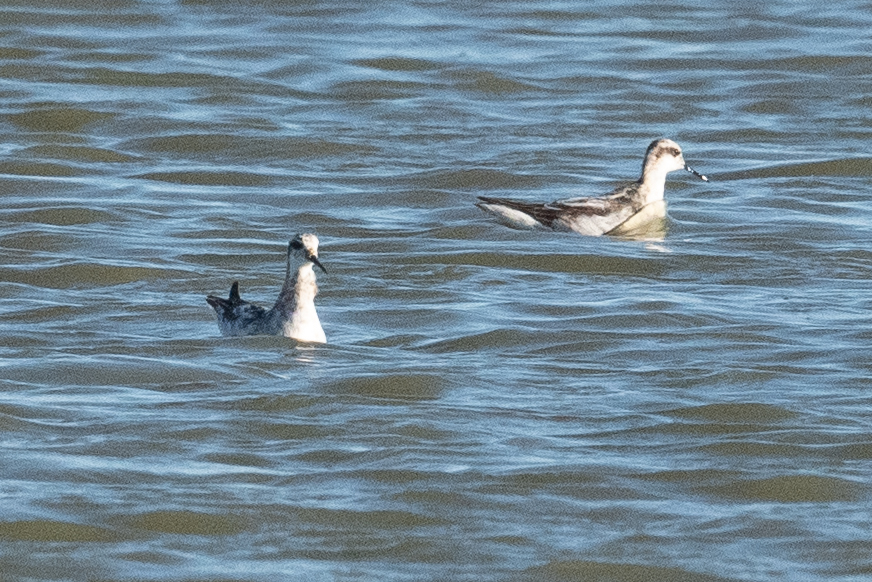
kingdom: Animalia
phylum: Chordata
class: Aves
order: Charadriiformes
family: Scolopacidae
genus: Phalaropus
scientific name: Phalaropus lobatus
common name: Red-necked phalarope
